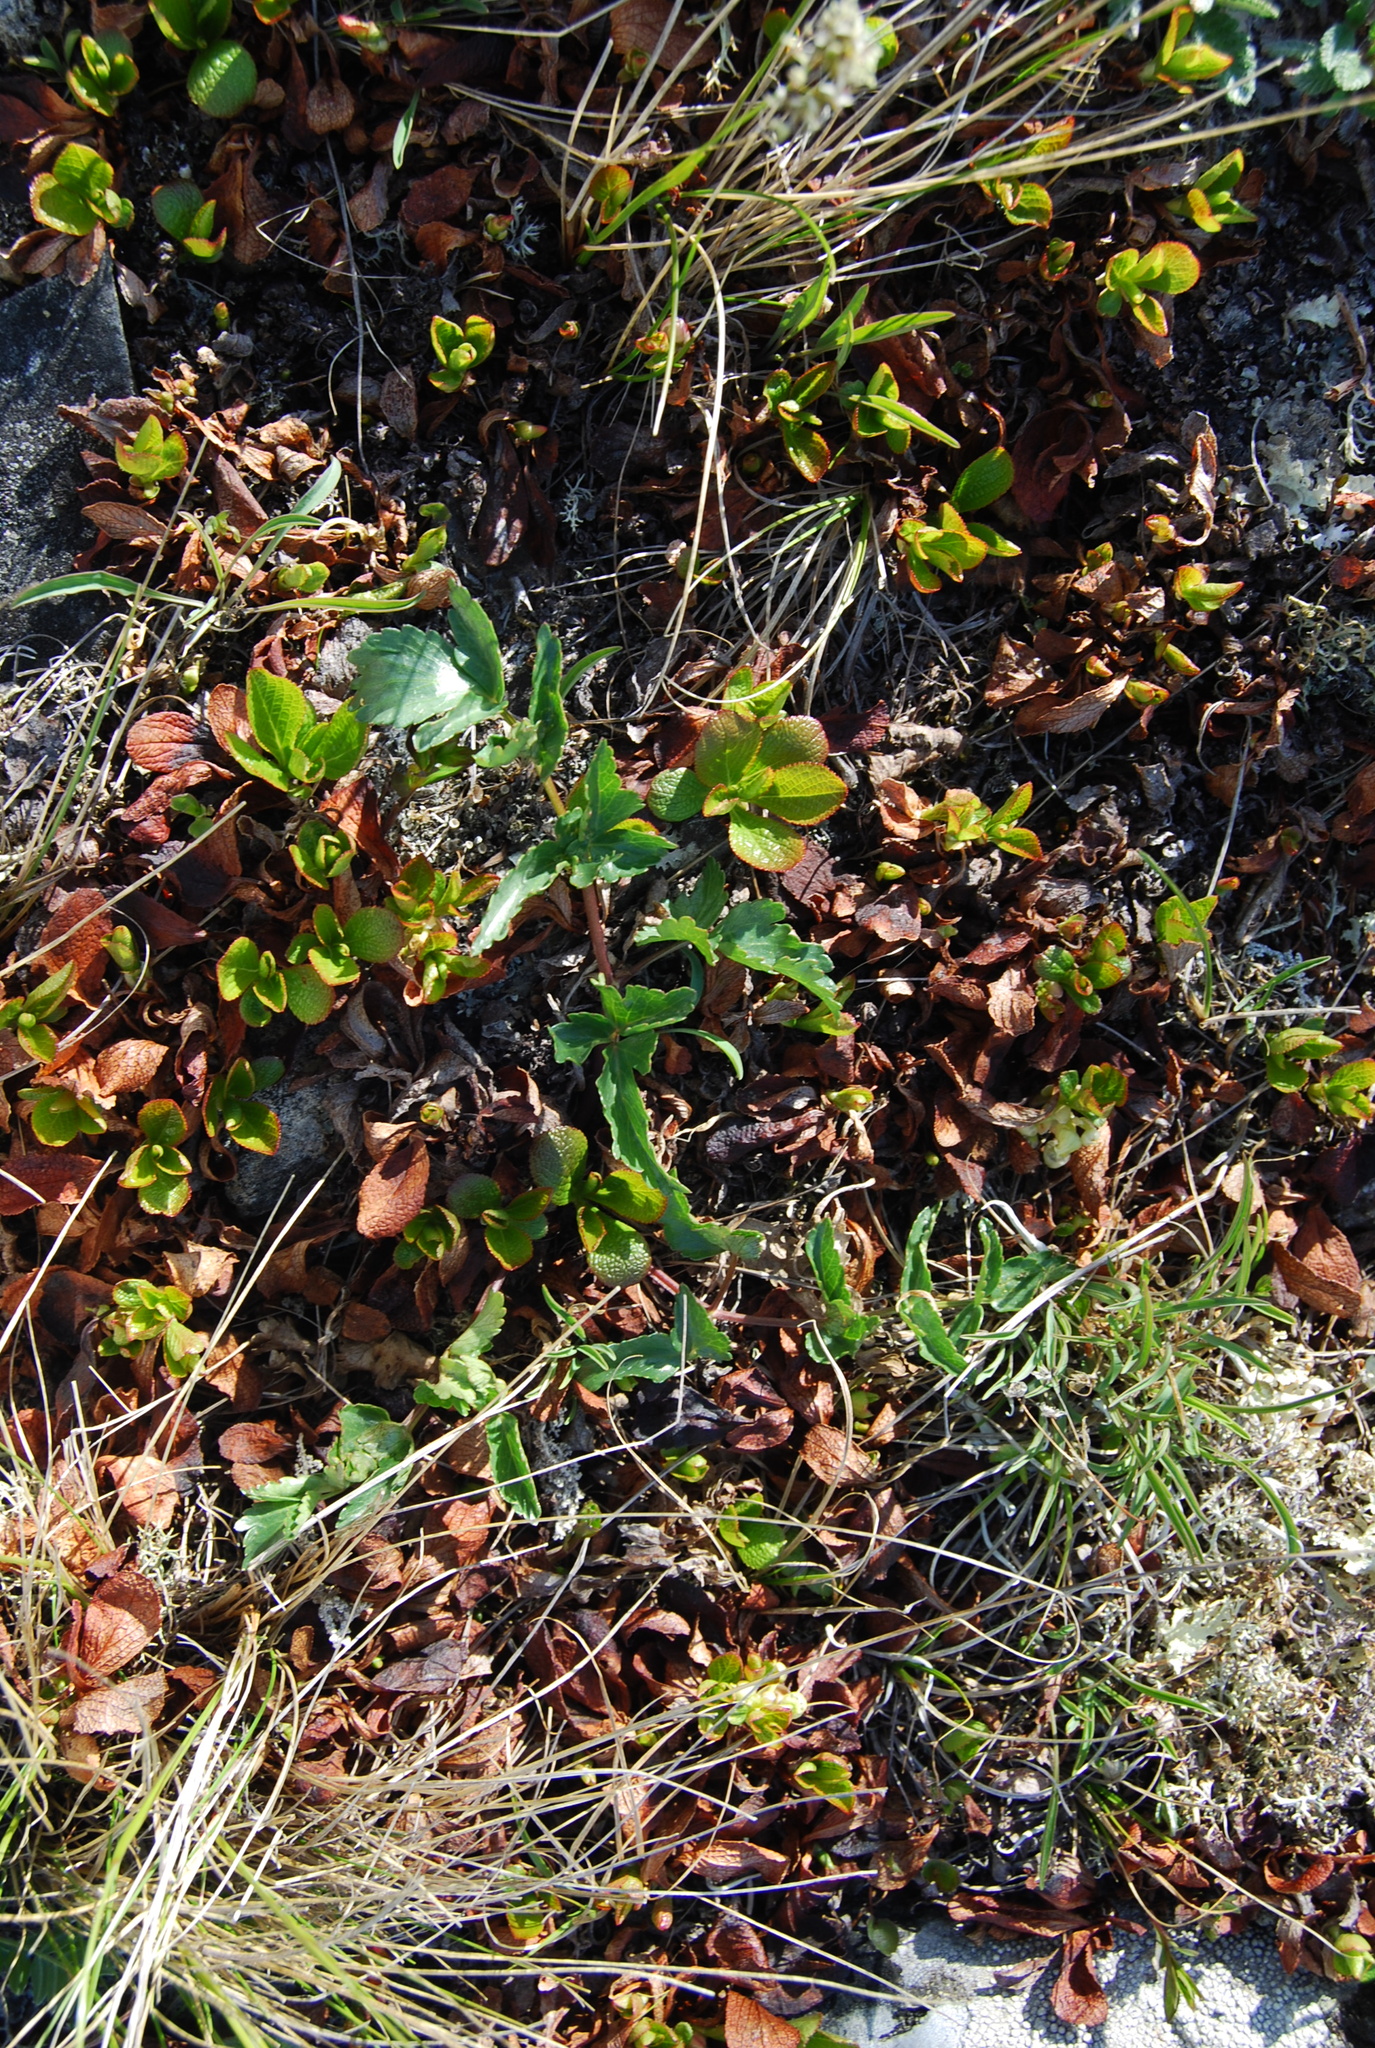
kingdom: Plantae
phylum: Tracheophyta
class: Magnoliopsida
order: Apiales
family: Apiaceae
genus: Magadania
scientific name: Magadania olaensis
